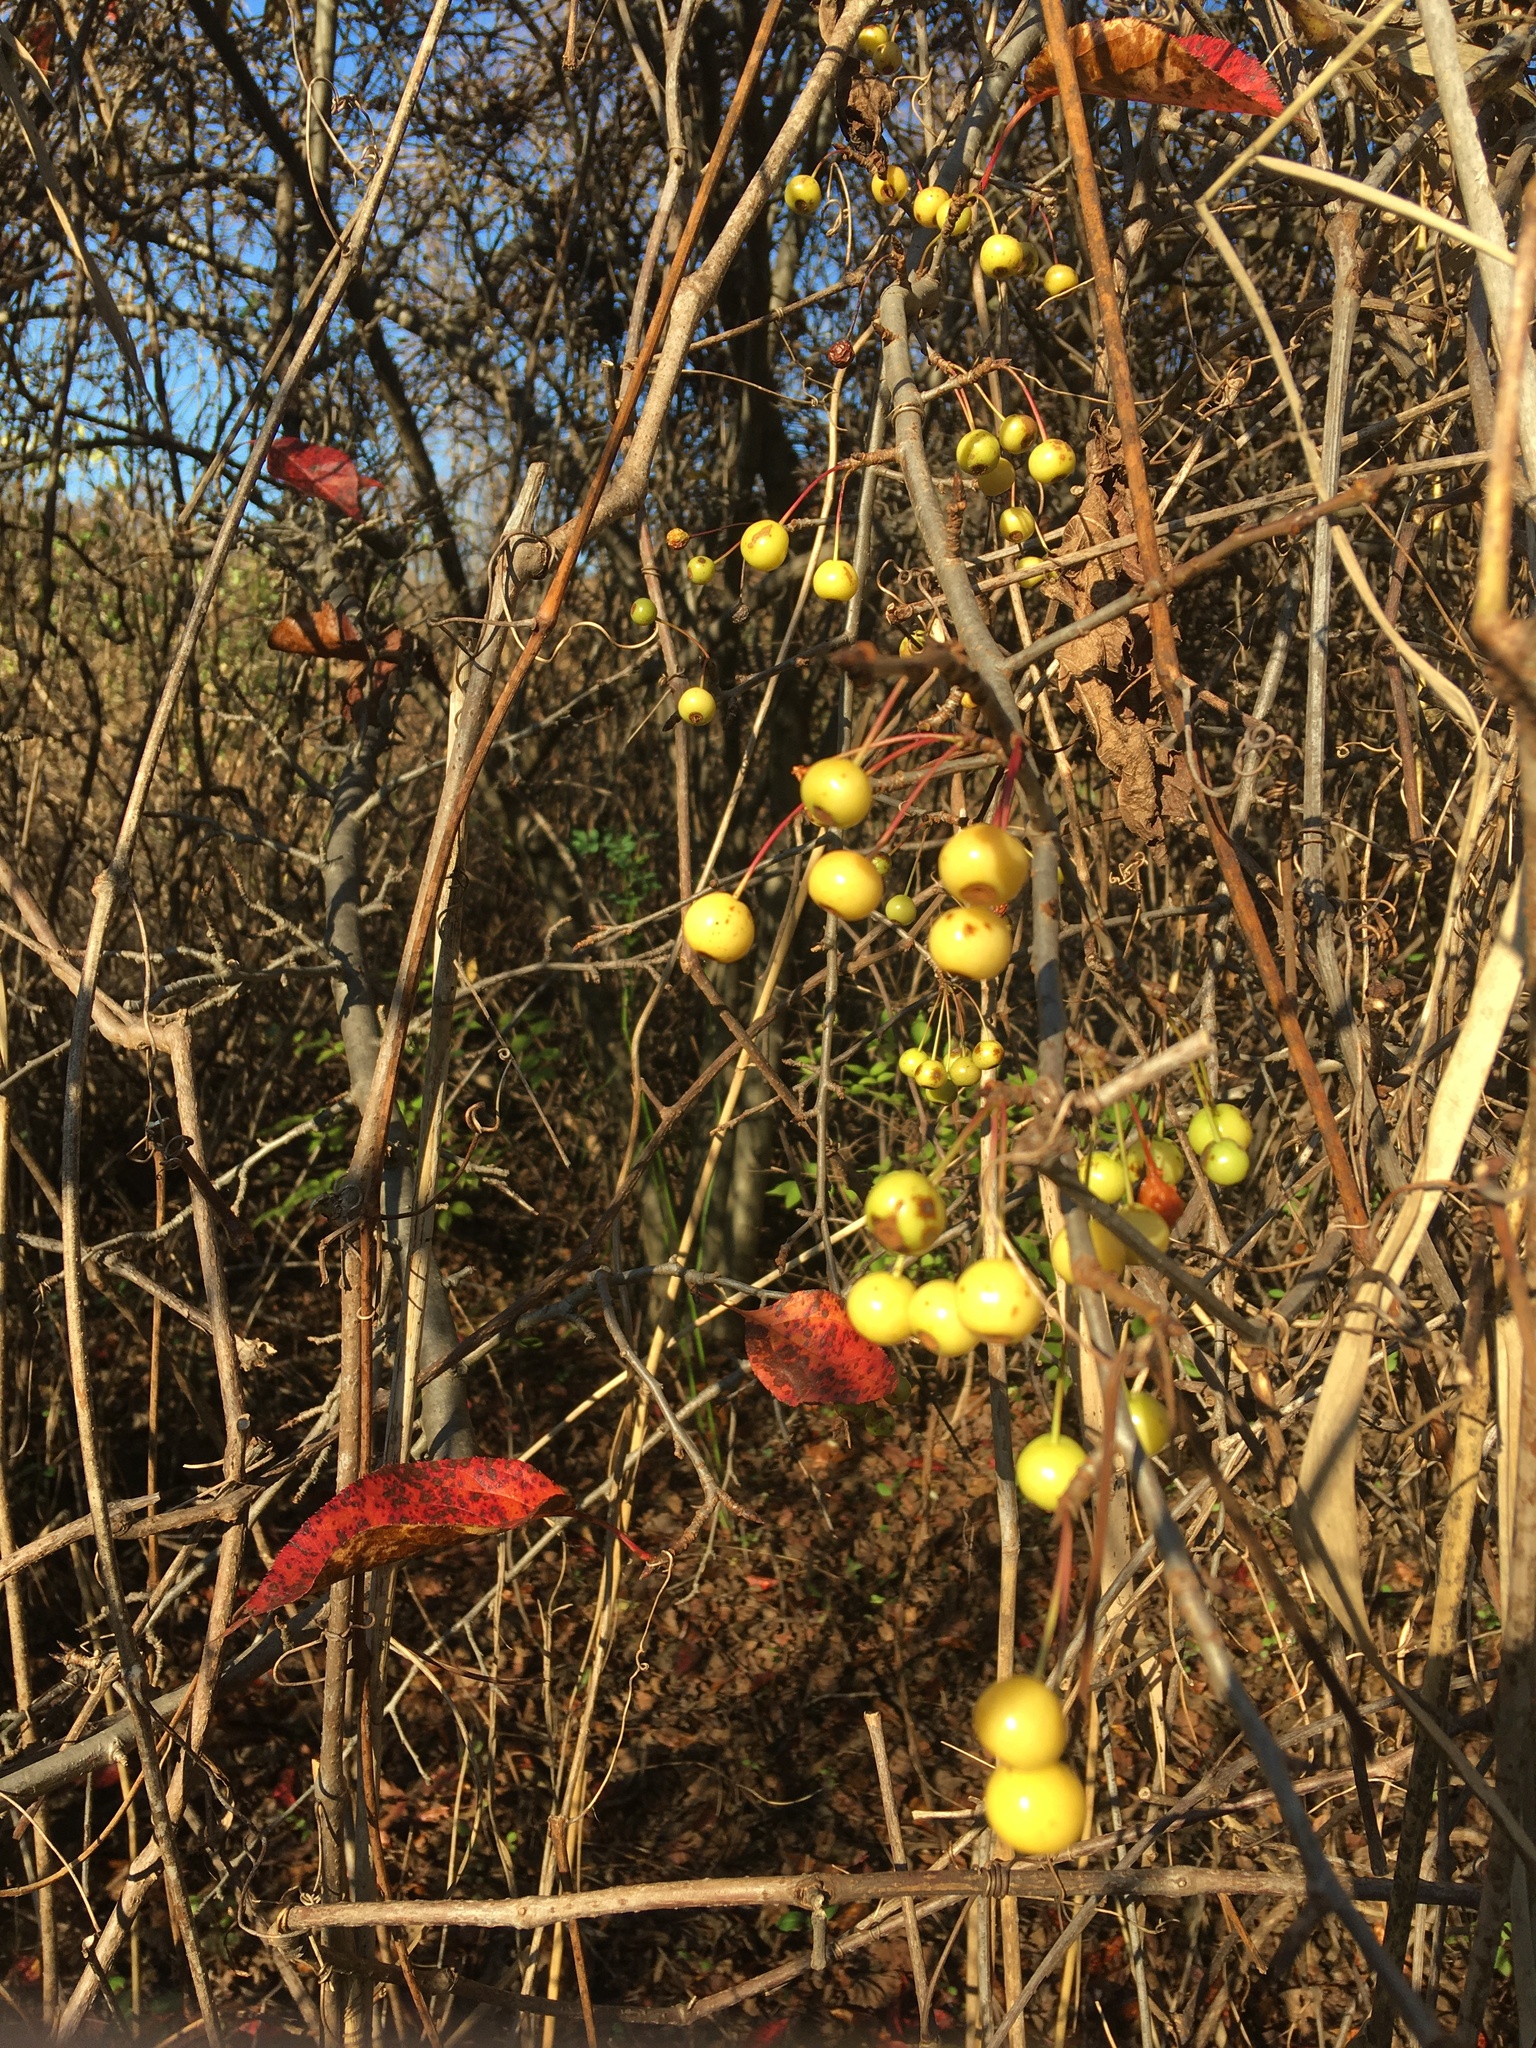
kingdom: Plantae
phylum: Tracheophyta
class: Magnoliopsida
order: Rosales
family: Rosaceae
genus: Malus
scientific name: Malus hupehensis
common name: Chinese crab apple
